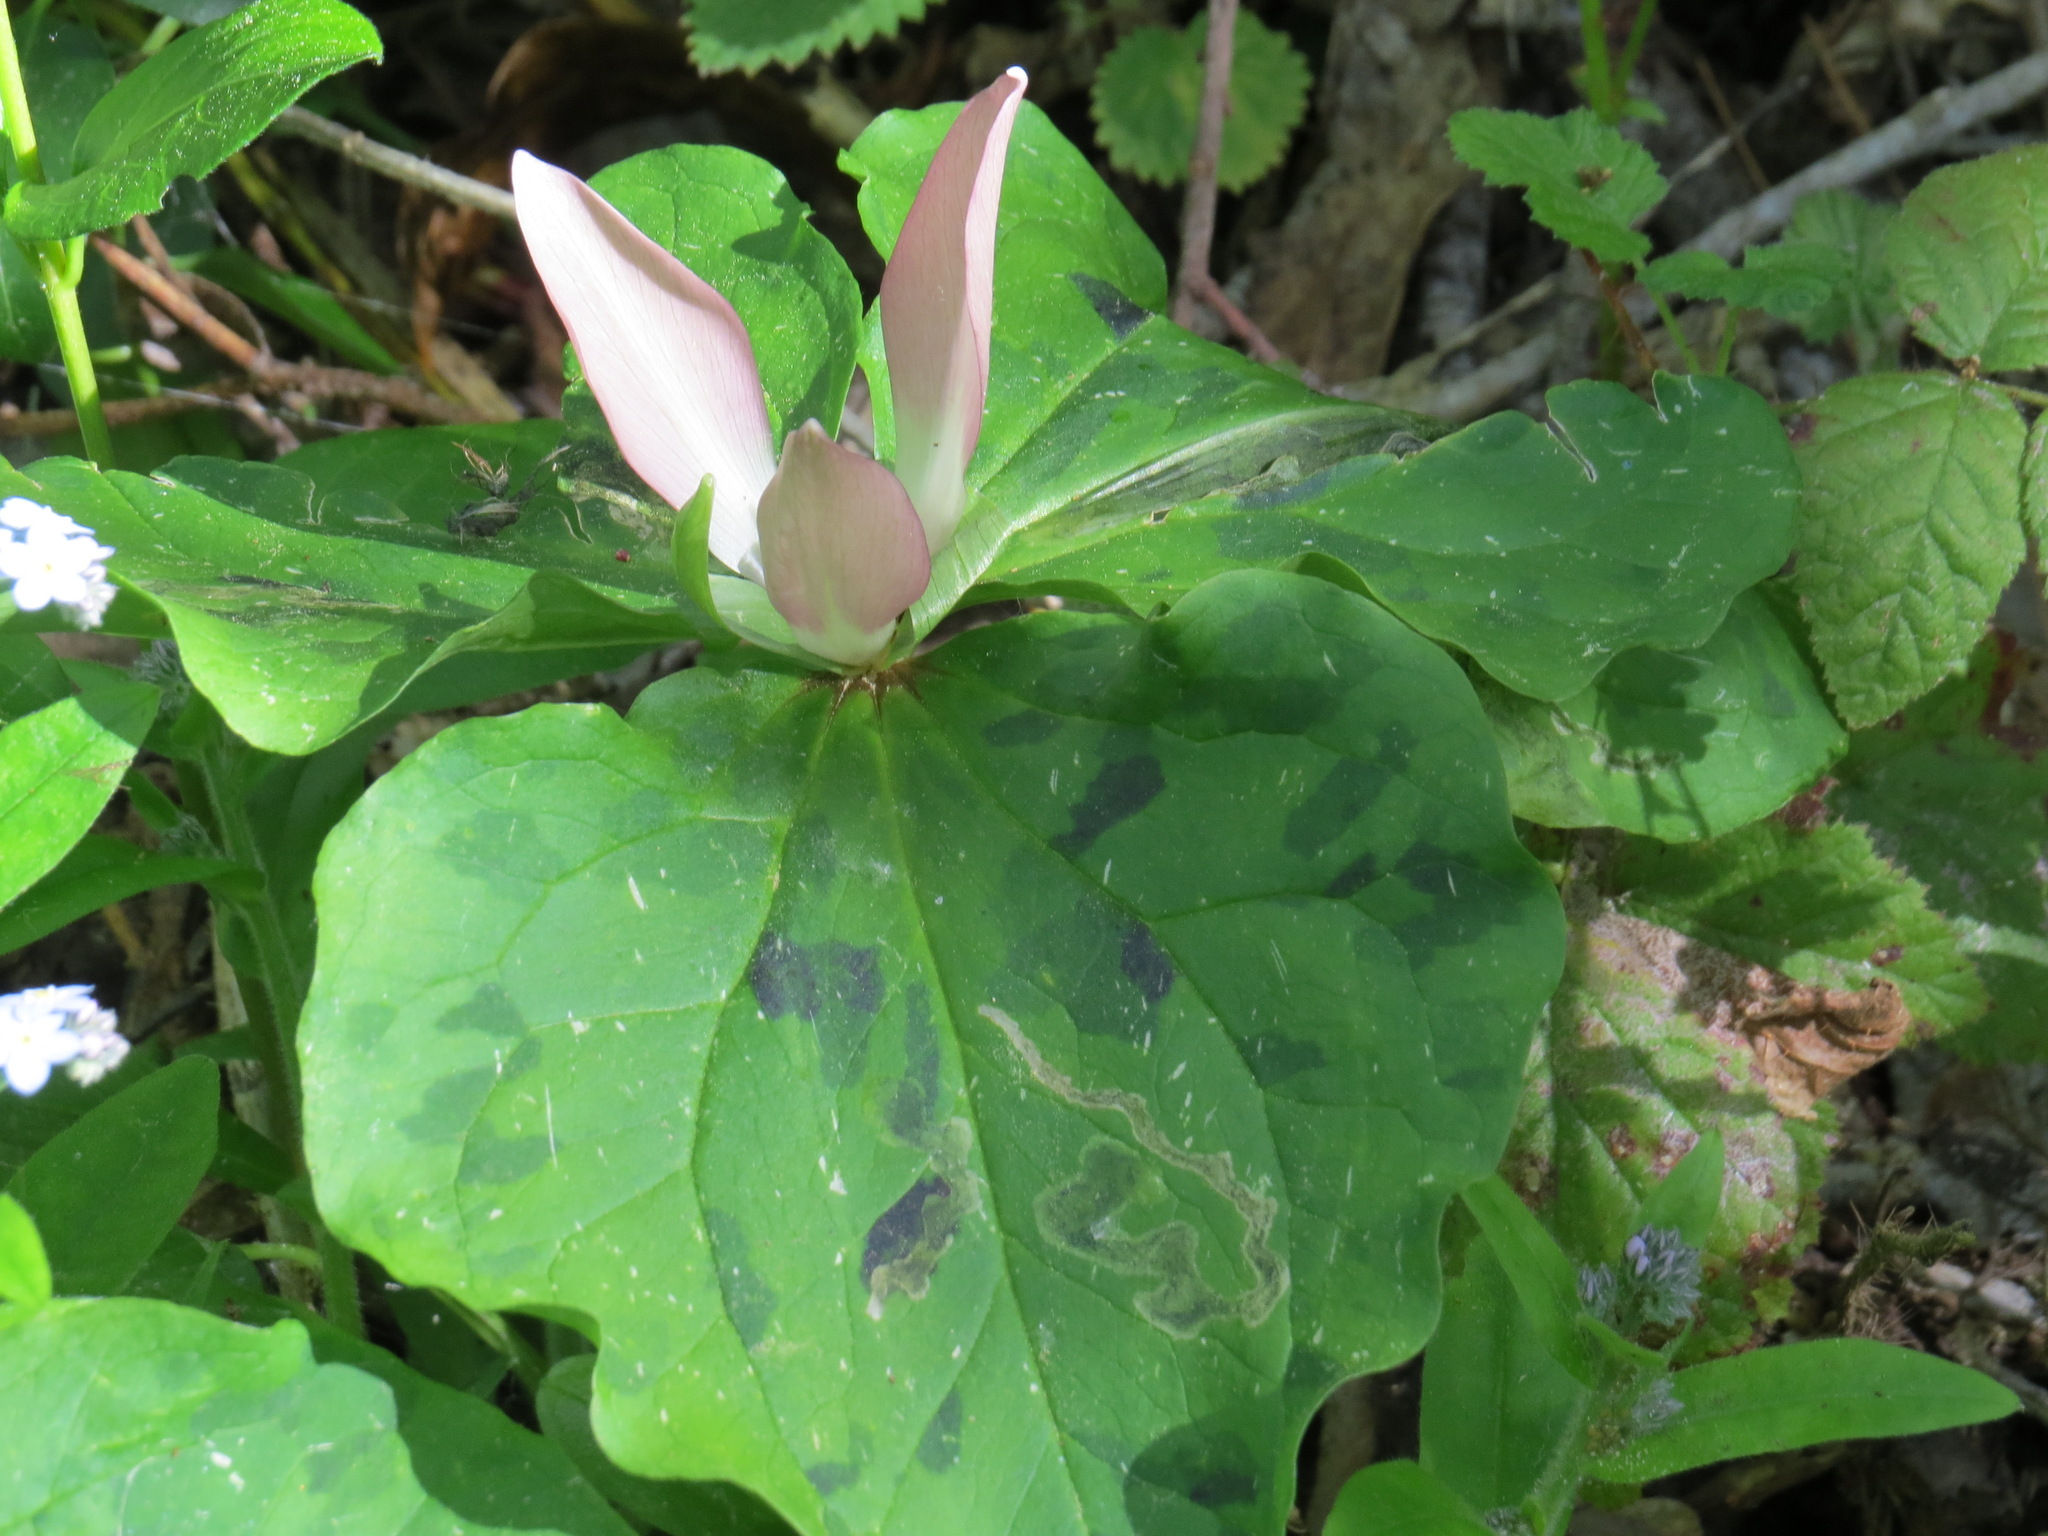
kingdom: Plantae
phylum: Tracheophyta
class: Liliopsida
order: Liliales
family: Melanthiaceae
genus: Trillium
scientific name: Trillium chloropetalum
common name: Giant trillium
